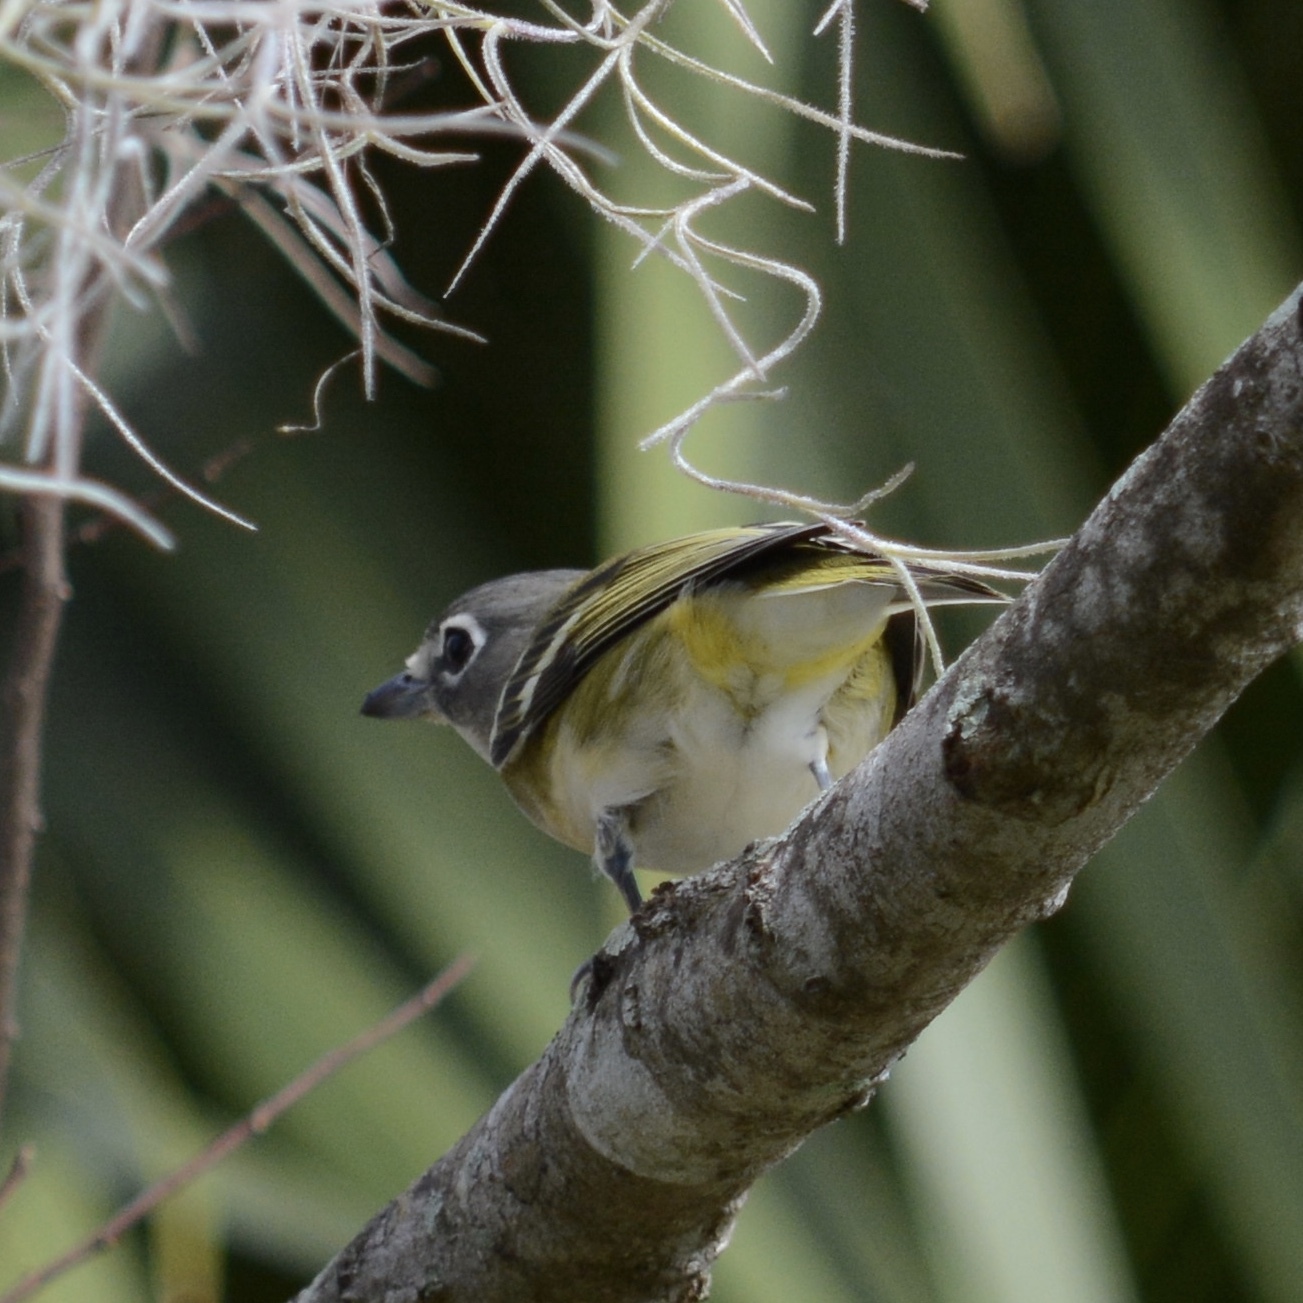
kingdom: Animalia
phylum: Chordata
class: Aves
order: Passeriformes
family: Vireonidae
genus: Vireo
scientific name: Vireo solitarius
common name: Blue-headed vireo
